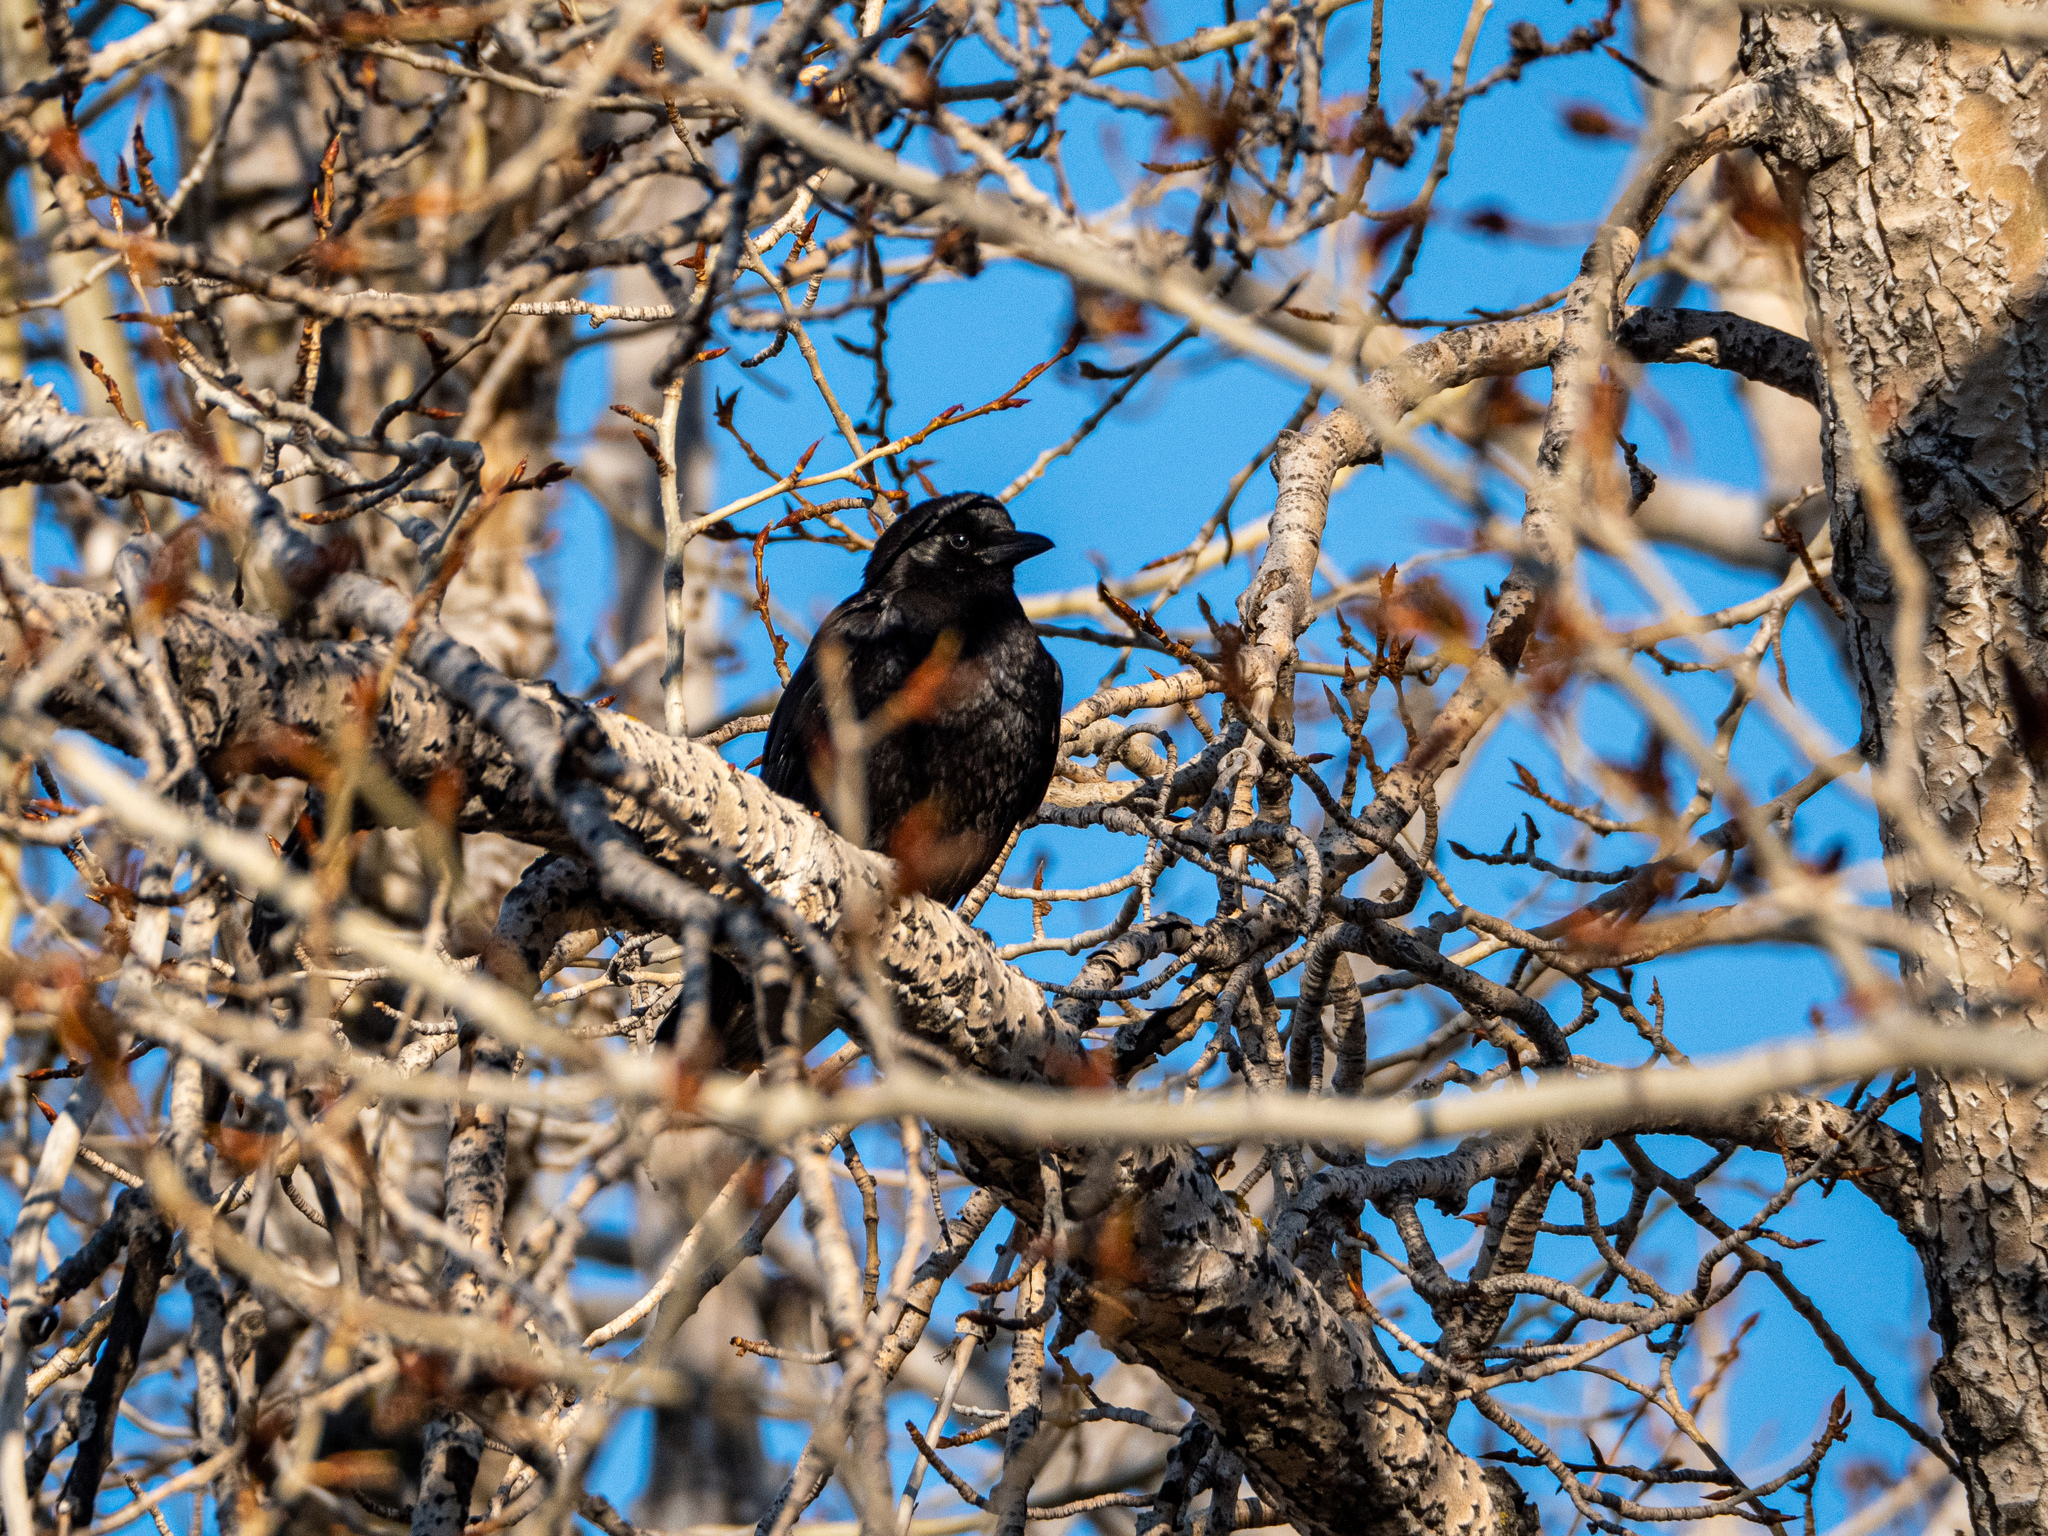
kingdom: Animalia
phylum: Chordata
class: Aves
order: Passeriformes
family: Corvidae
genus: Corvus
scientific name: Corvus brachyrhynchos
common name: American crow
